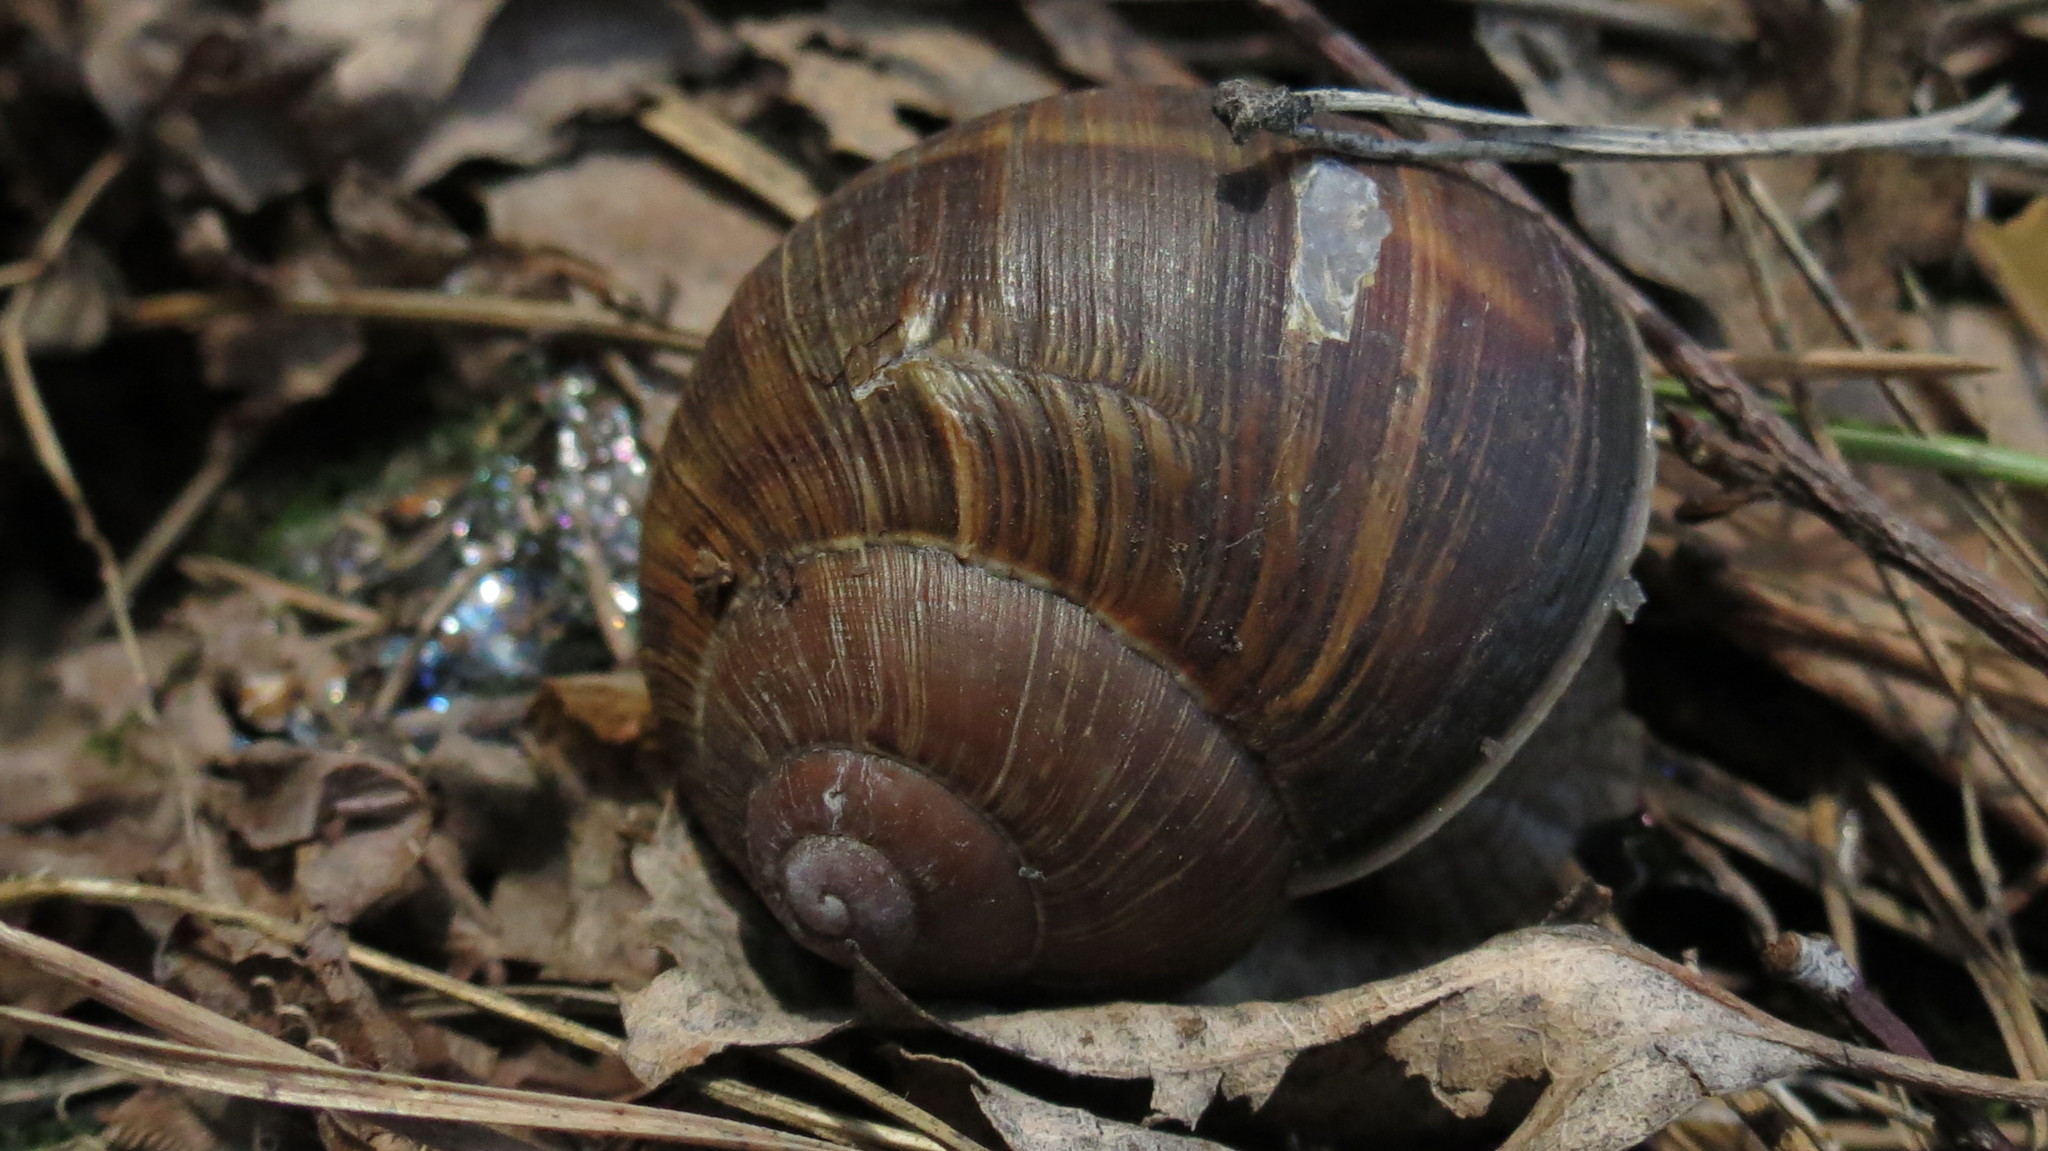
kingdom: Animalia
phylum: Mollusca
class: Gastropoda
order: Stylommatophora
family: Helicidae
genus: Helix
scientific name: Helix pomatia
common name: Roman snail
